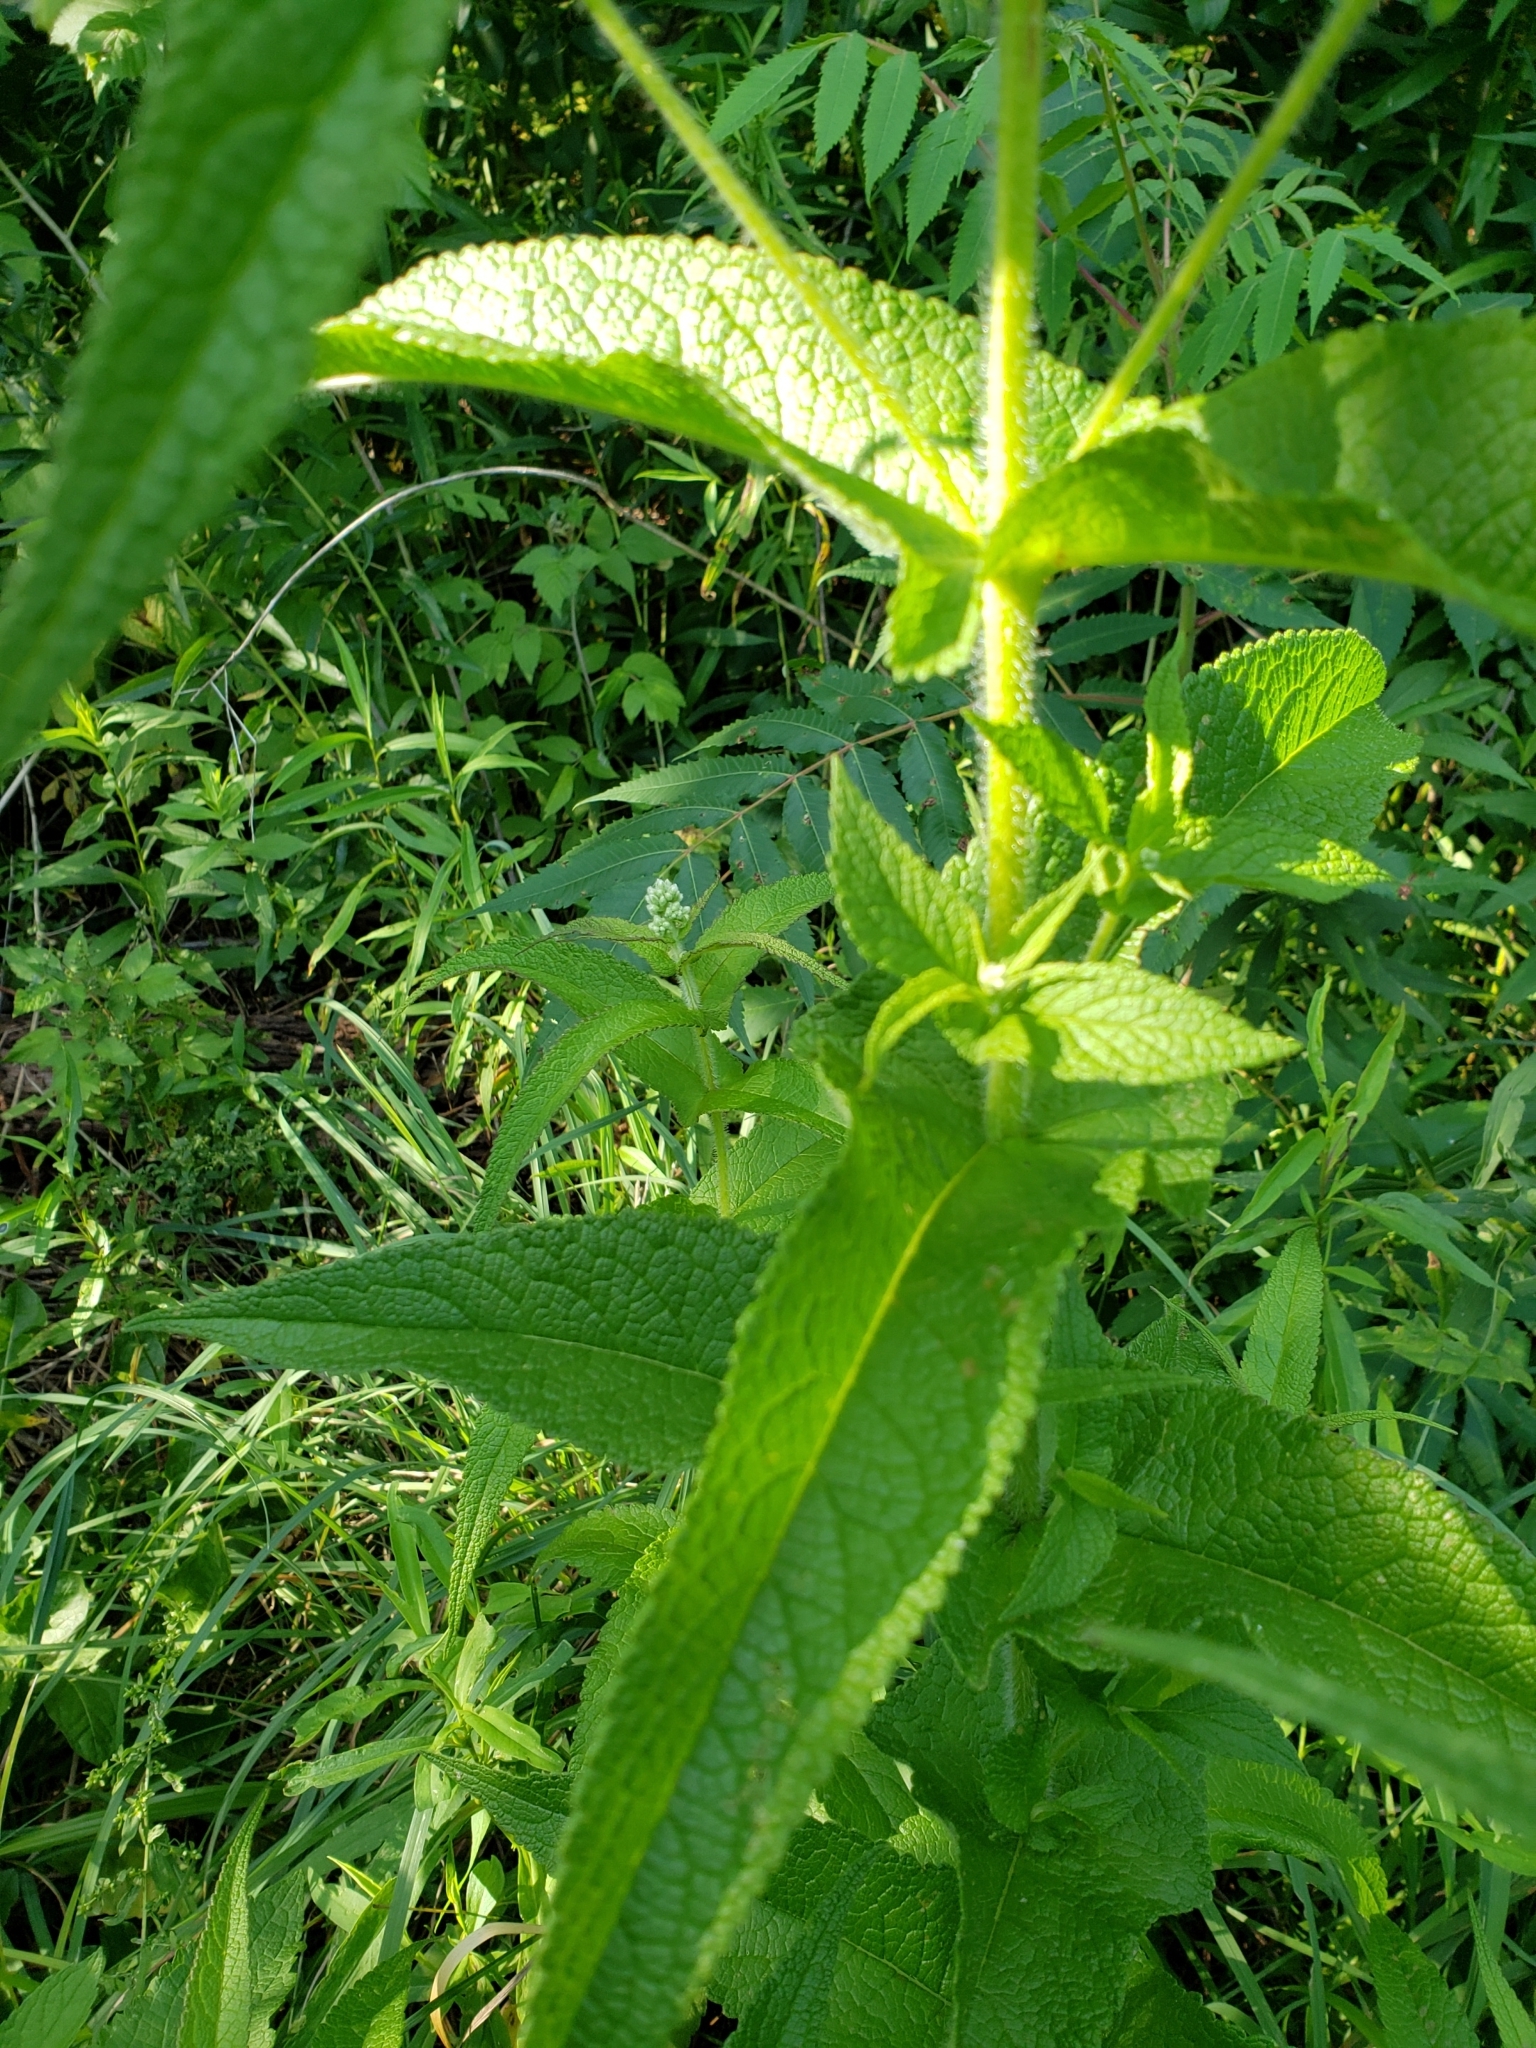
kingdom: Plantae
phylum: Tracheophyta
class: Magnoliopsida
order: Asterales
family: Asteraceae
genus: Eupatorium
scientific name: Eupatorium perfoliatum
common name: Boneset
